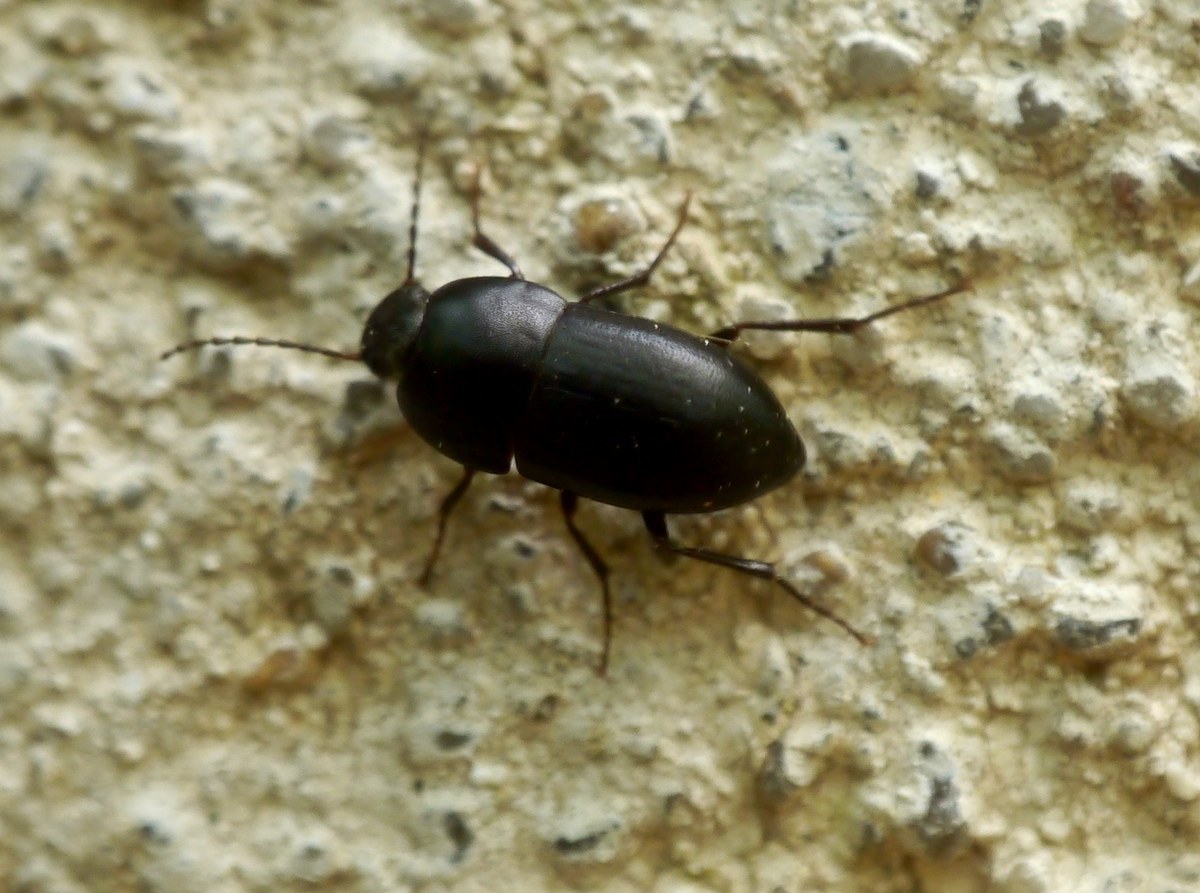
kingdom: Animalia
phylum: Arthropoda
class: Insecta
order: Coleoptera
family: Tenebrionidae
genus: Crypticus
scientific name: Crypticus quisquilius
